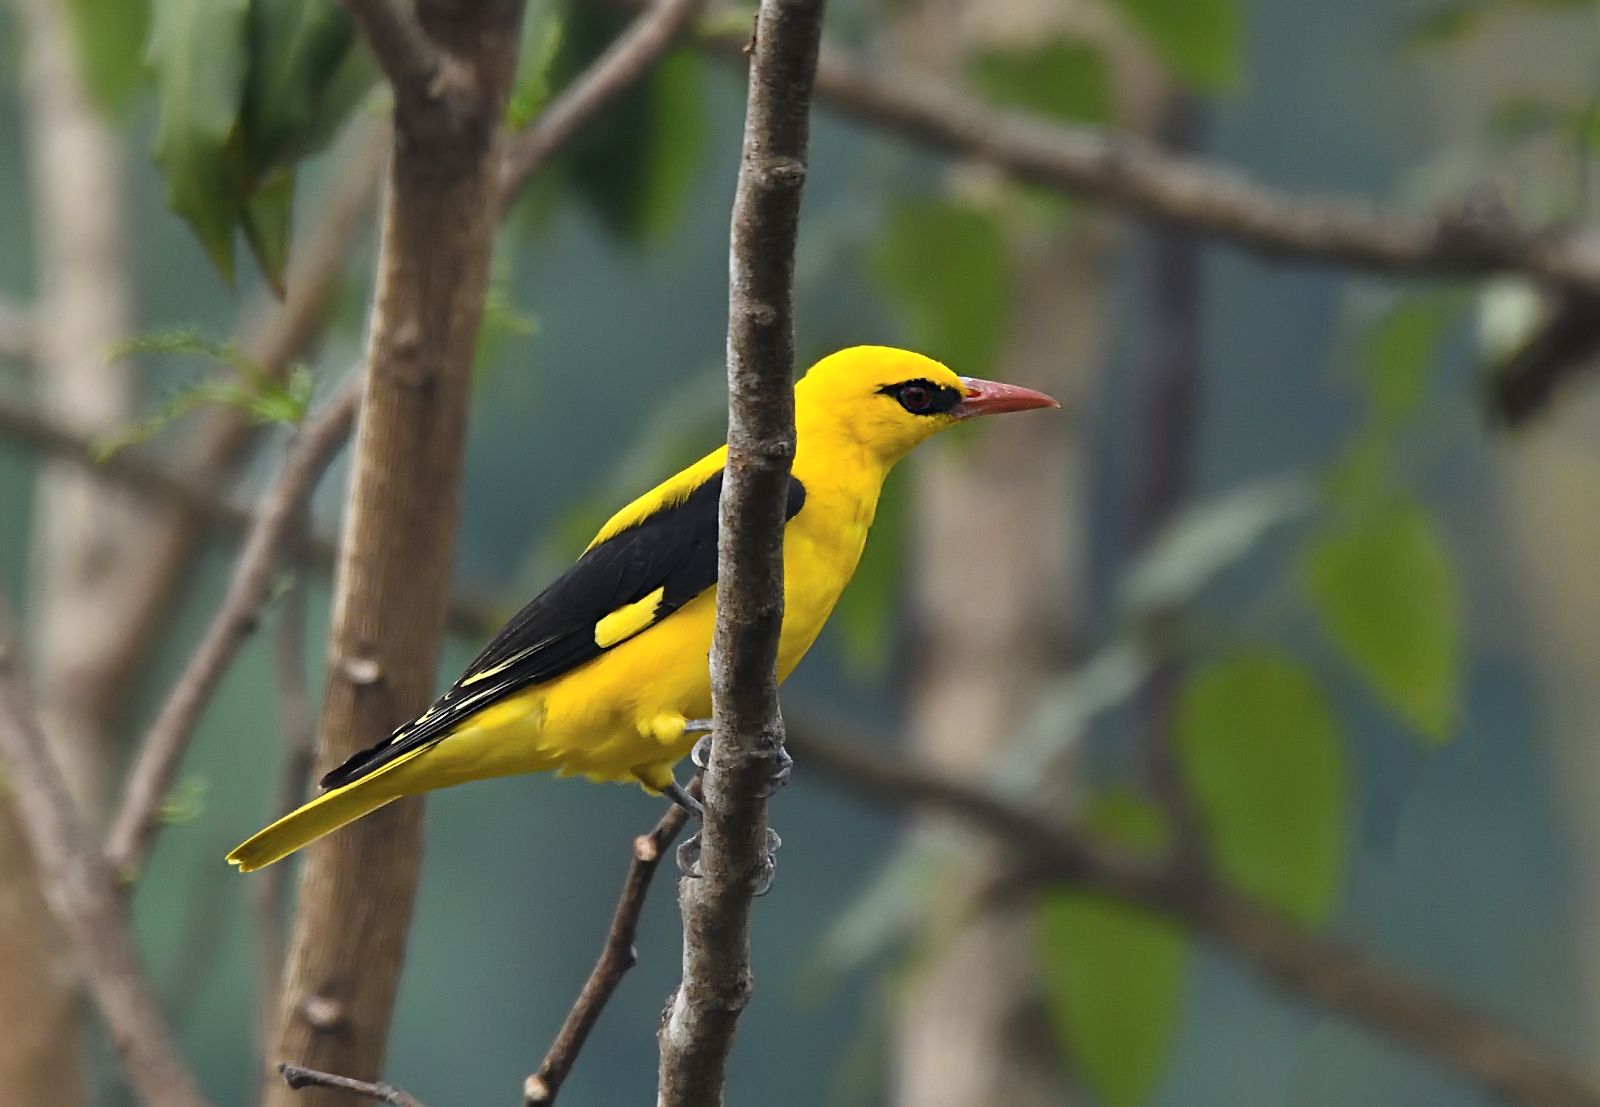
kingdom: Animalia
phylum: Chordata
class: Aves
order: Passeriformes
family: Oriolidae
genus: Oriolus
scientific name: Oriolus kundoo
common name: Indian golden oriole
